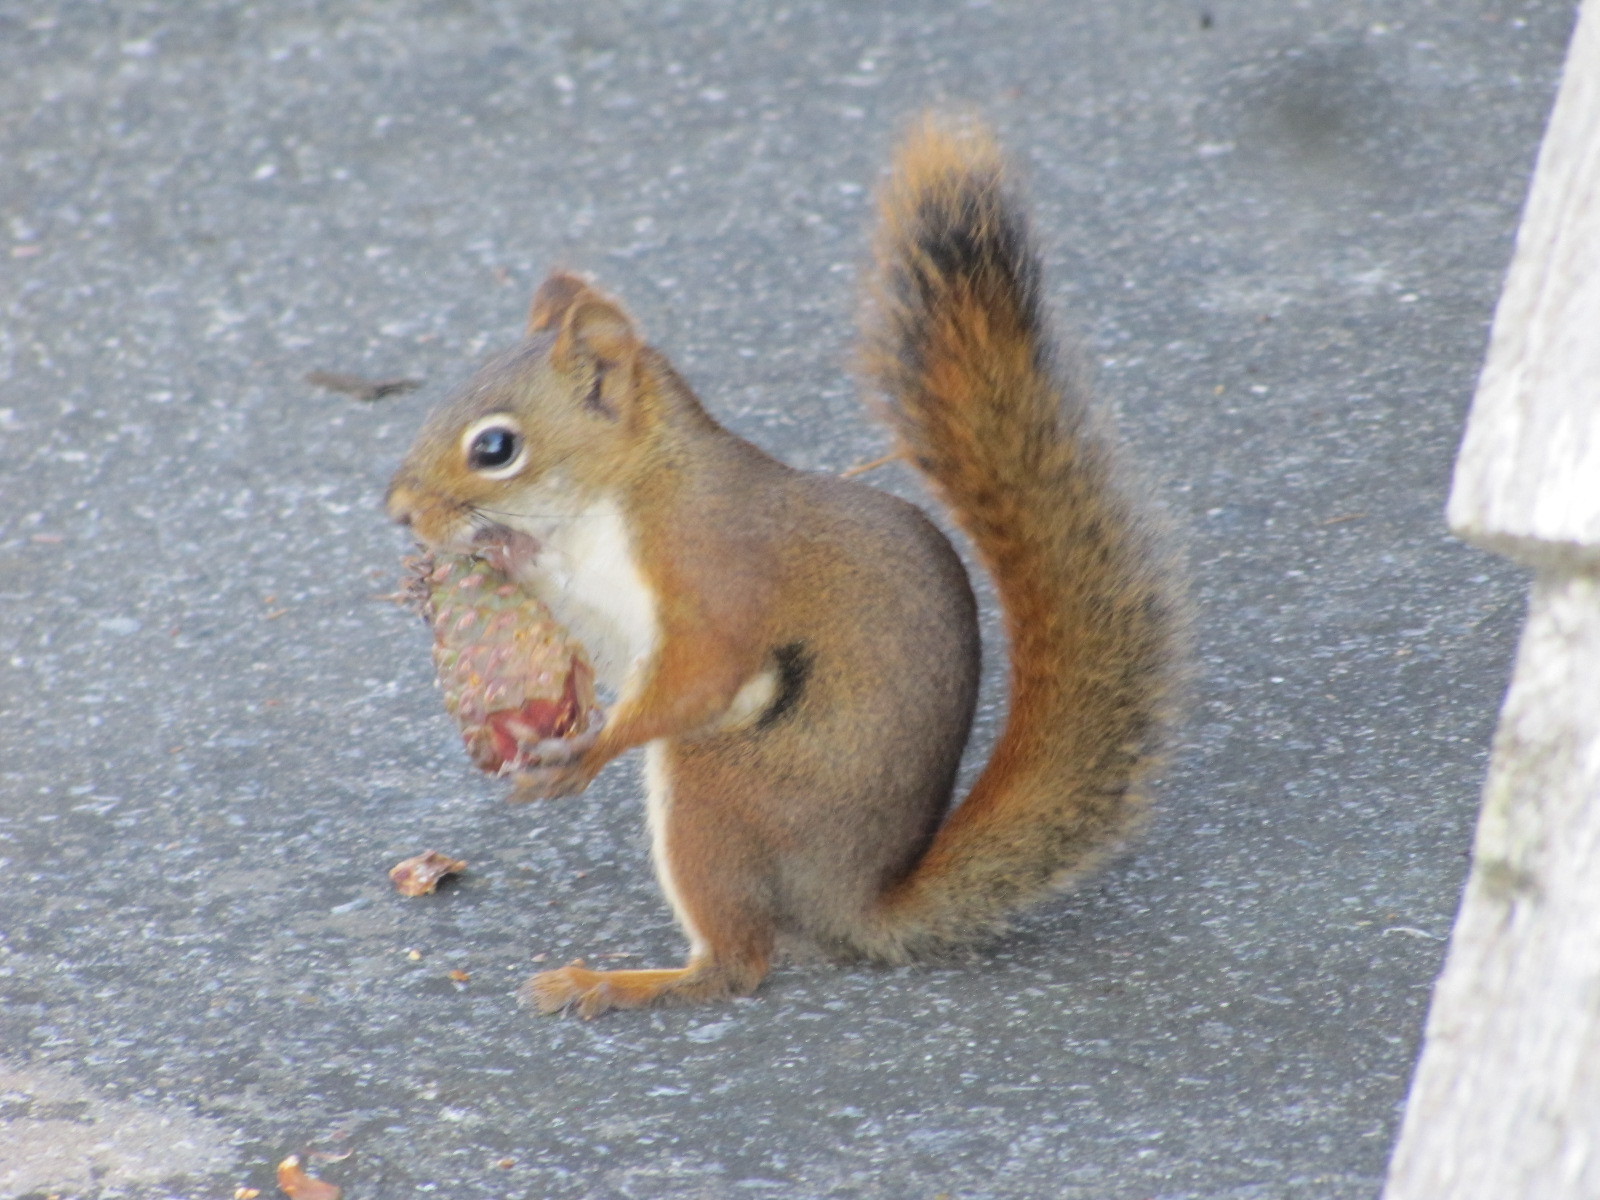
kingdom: Animalia
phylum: Chordata
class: Mammalia
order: Rodentia
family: Sciuridae
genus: Tamiasciurus
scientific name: Tamiasciurus hudsonicus
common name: Red squirrel
